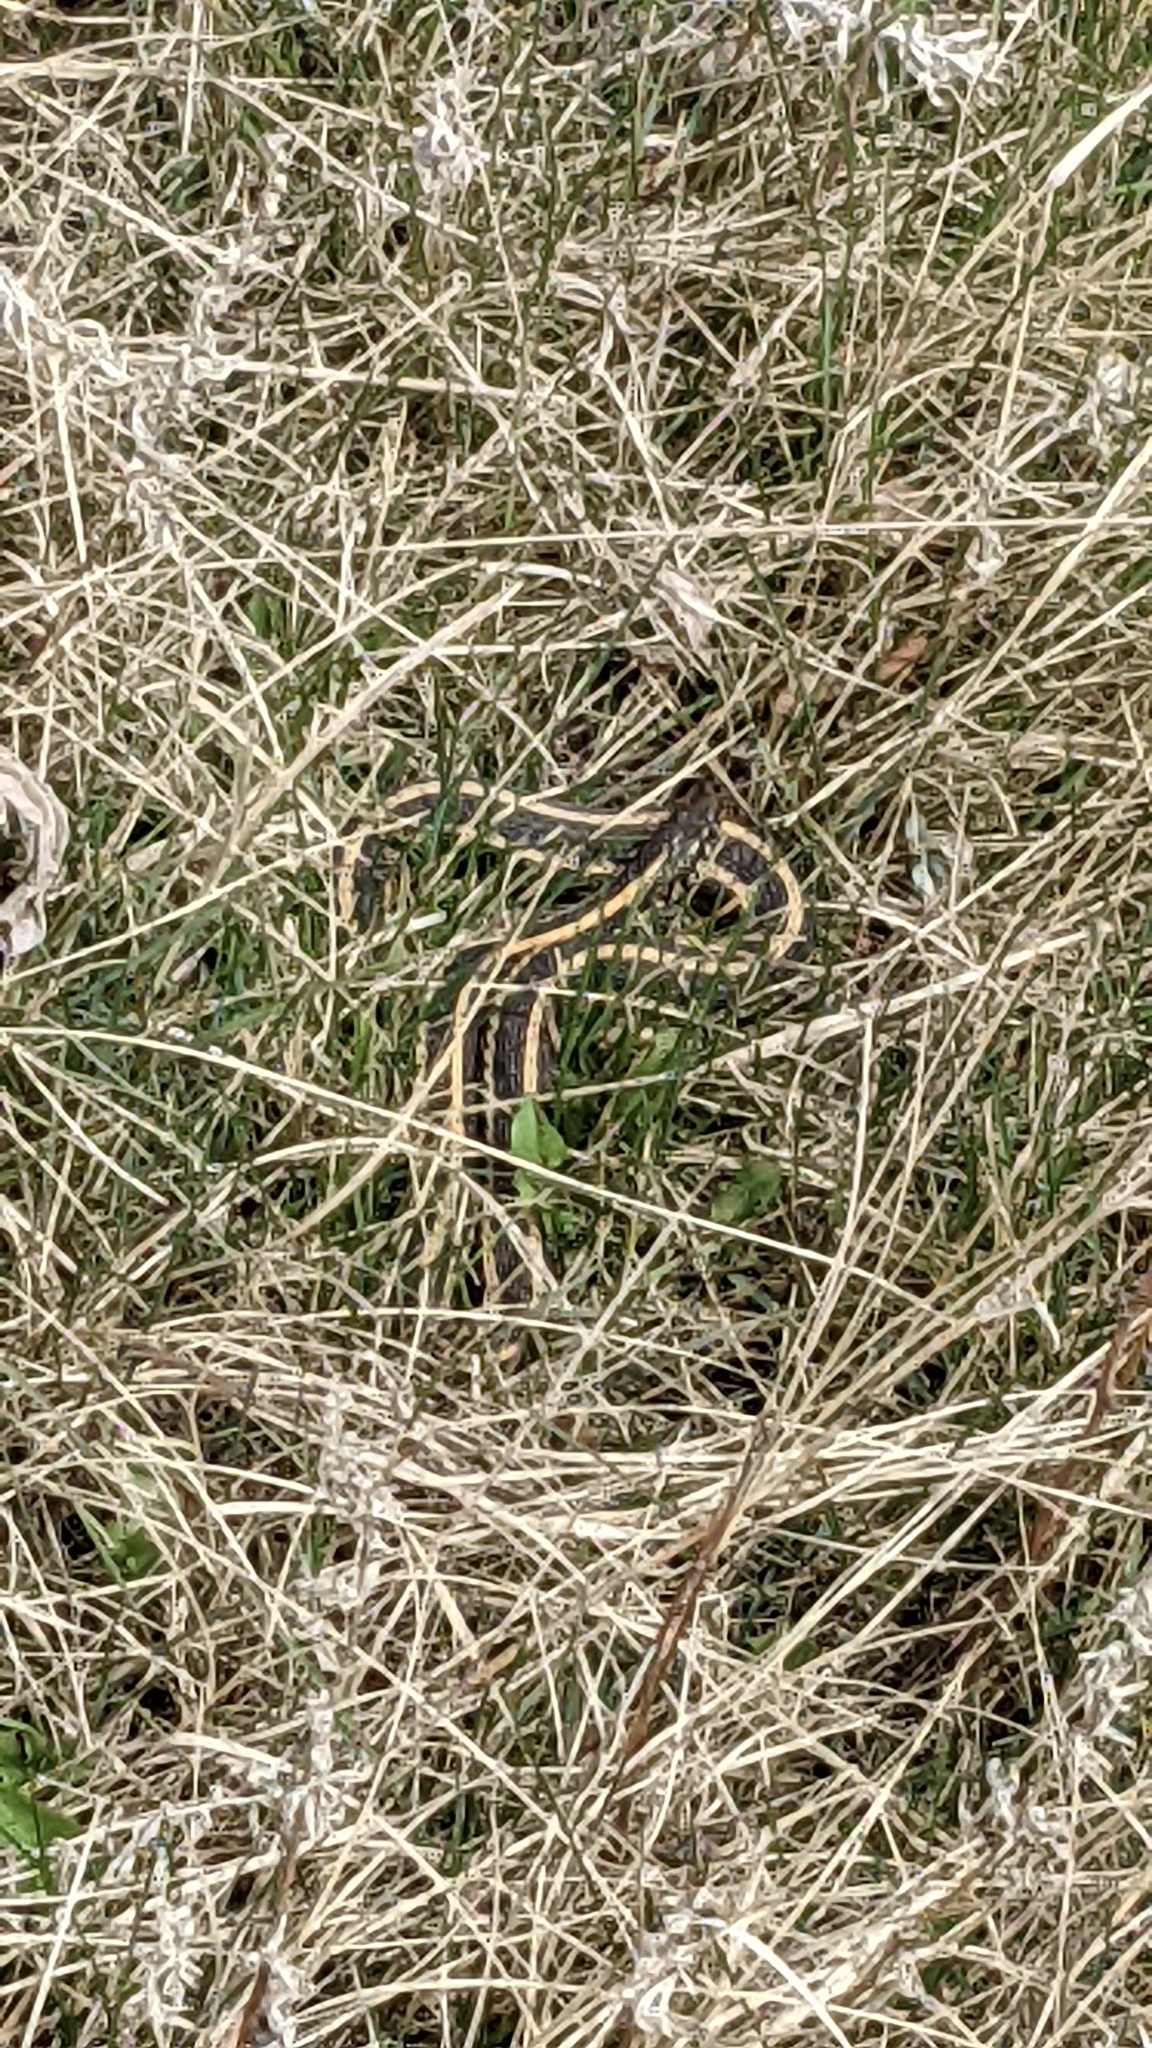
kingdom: Animalia
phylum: Chordata
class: Squamata
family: Colubridae
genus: Thamnophis
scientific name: Thamnophis radix
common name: Plains garter snake
